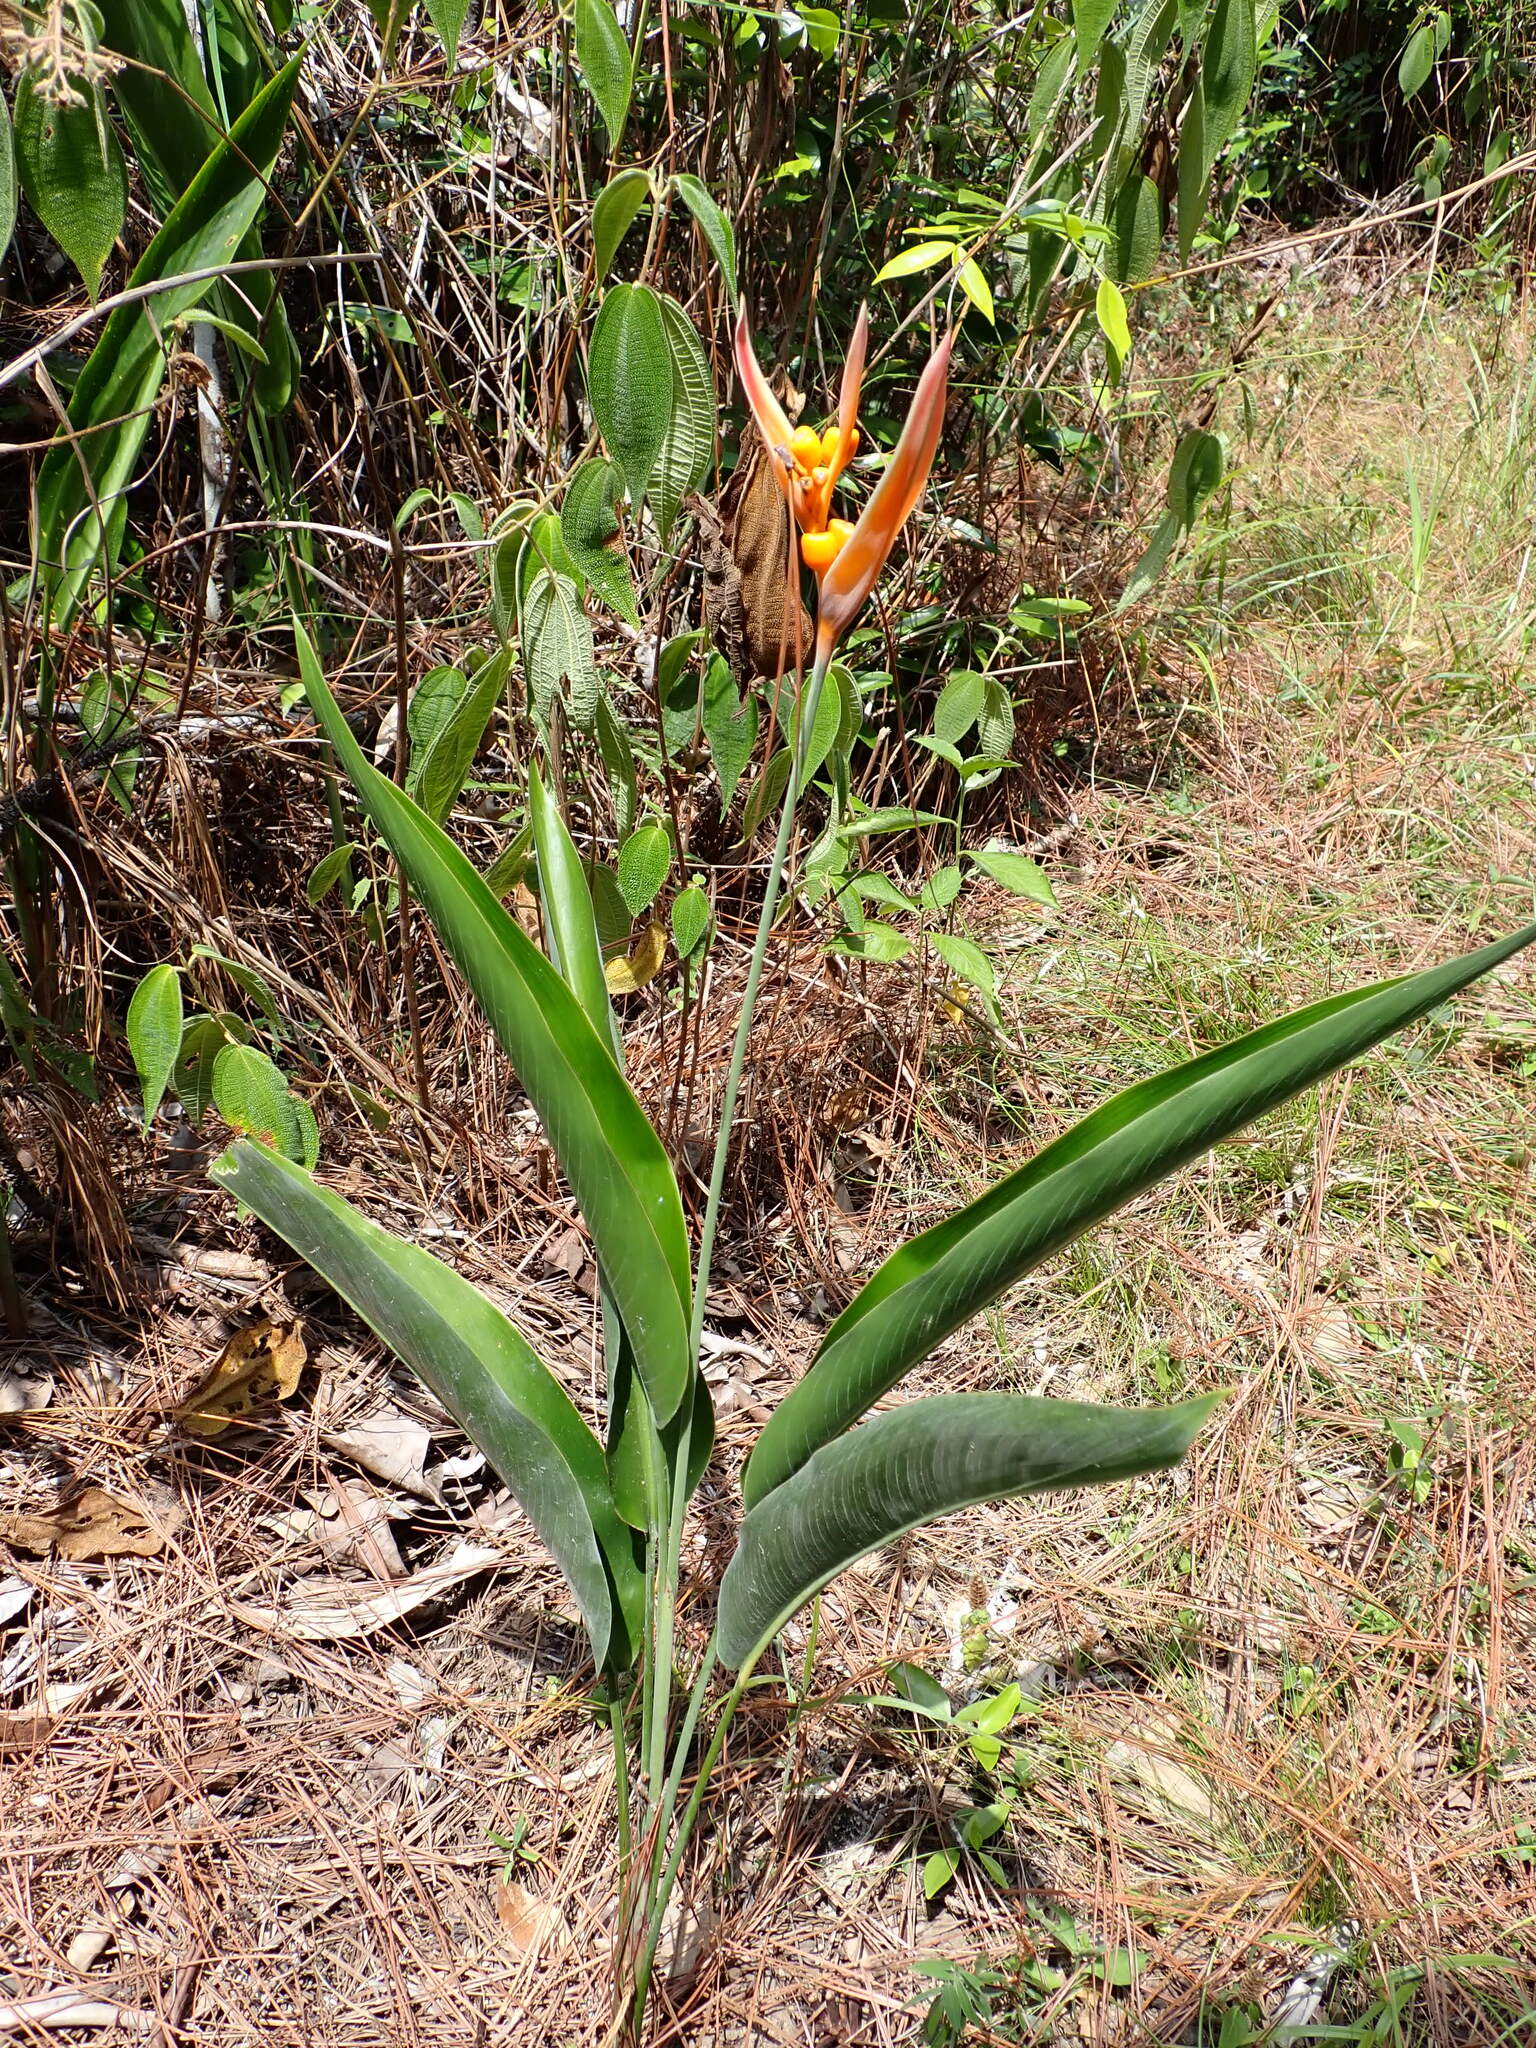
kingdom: Plantae
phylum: Tracheophyta
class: Liliopsida
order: Zingiberales
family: Heliconiaceae
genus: Heliconia
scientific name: Heliconia psittacorum
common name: Parrot's-flower
